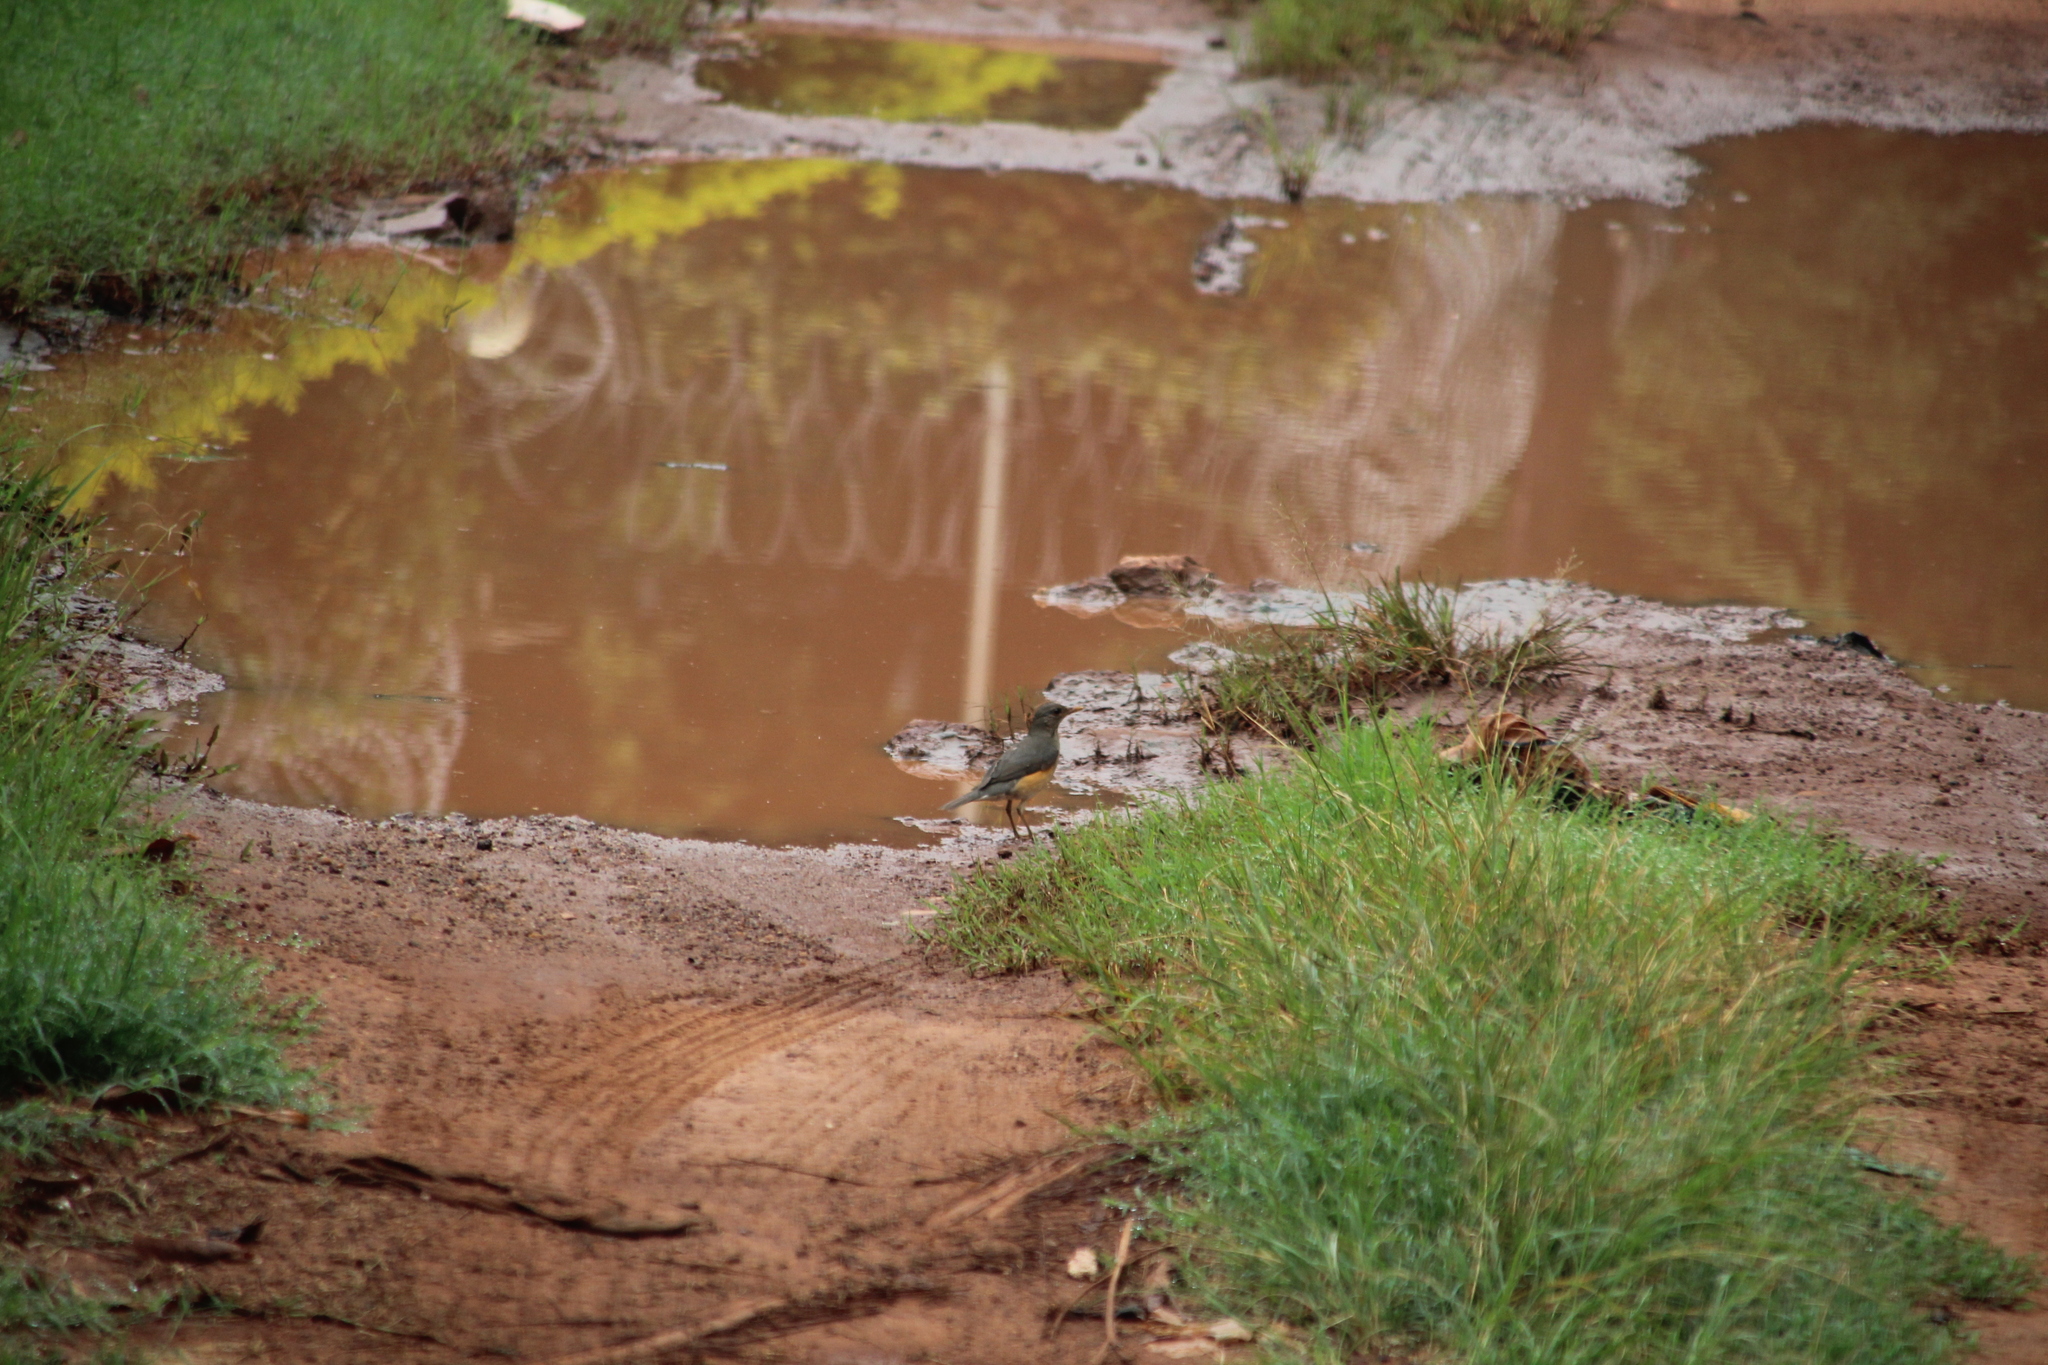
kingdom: Animalia
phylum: Chordata
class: Aves
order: Passeriformes
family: Turdidae
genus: Turdus
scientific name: Turdus pelios
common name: African thrush
